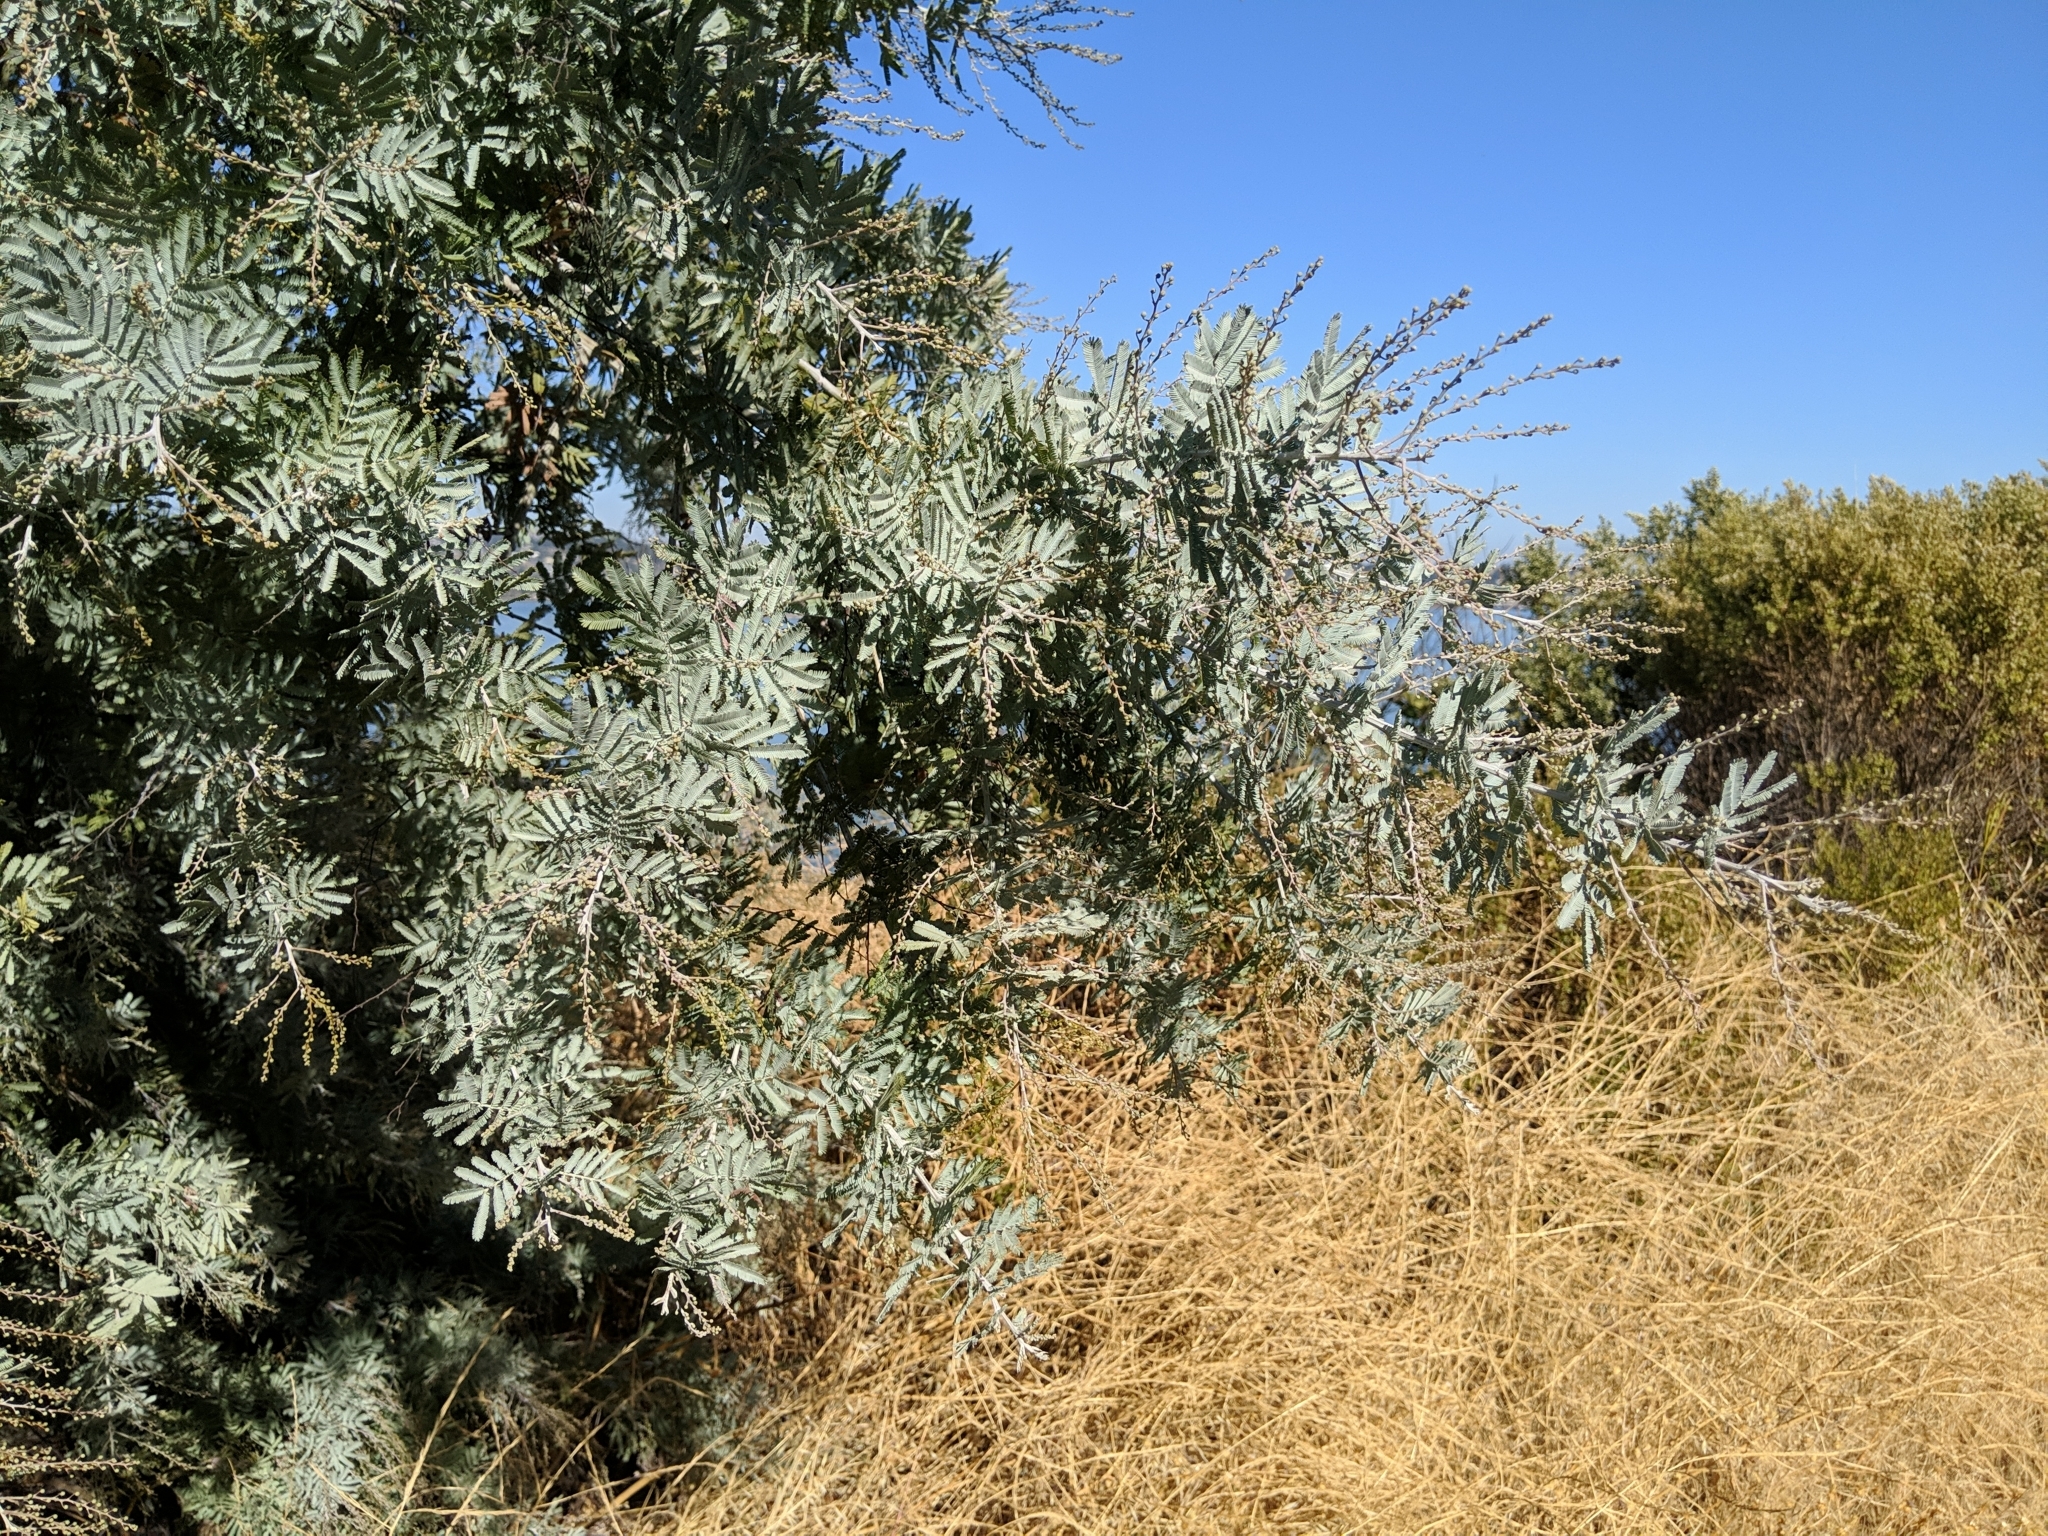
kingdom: Plantae
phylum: Tracheophyta
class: Magnoliopsida
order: Fabales
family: Fabaceae
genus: Acacia
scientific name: Acacia baileyana
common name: Cootamundra wattle
